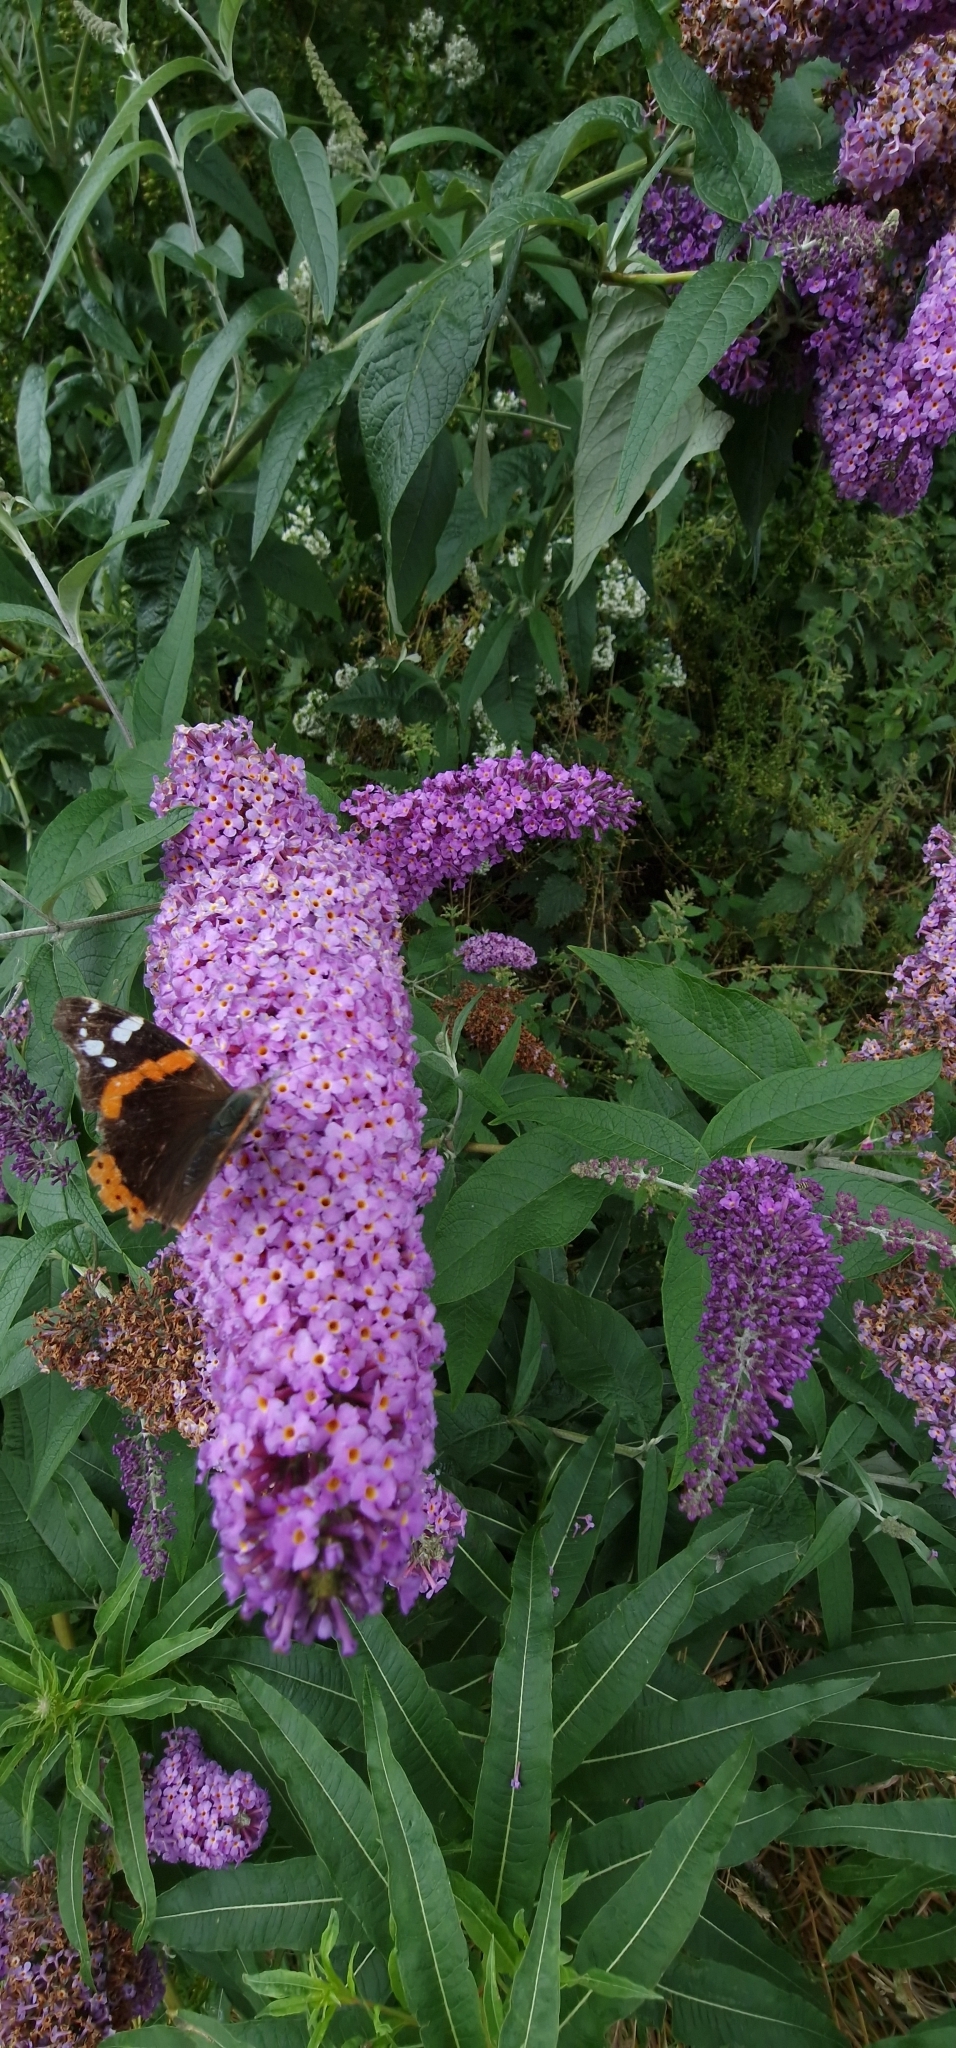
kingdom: Animalia
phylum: Arthropoda
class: Insecta
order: Lepidoptera
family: Nymphalidae
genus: Vanessa
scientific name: Vanessa atalanta
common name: Red admiral
